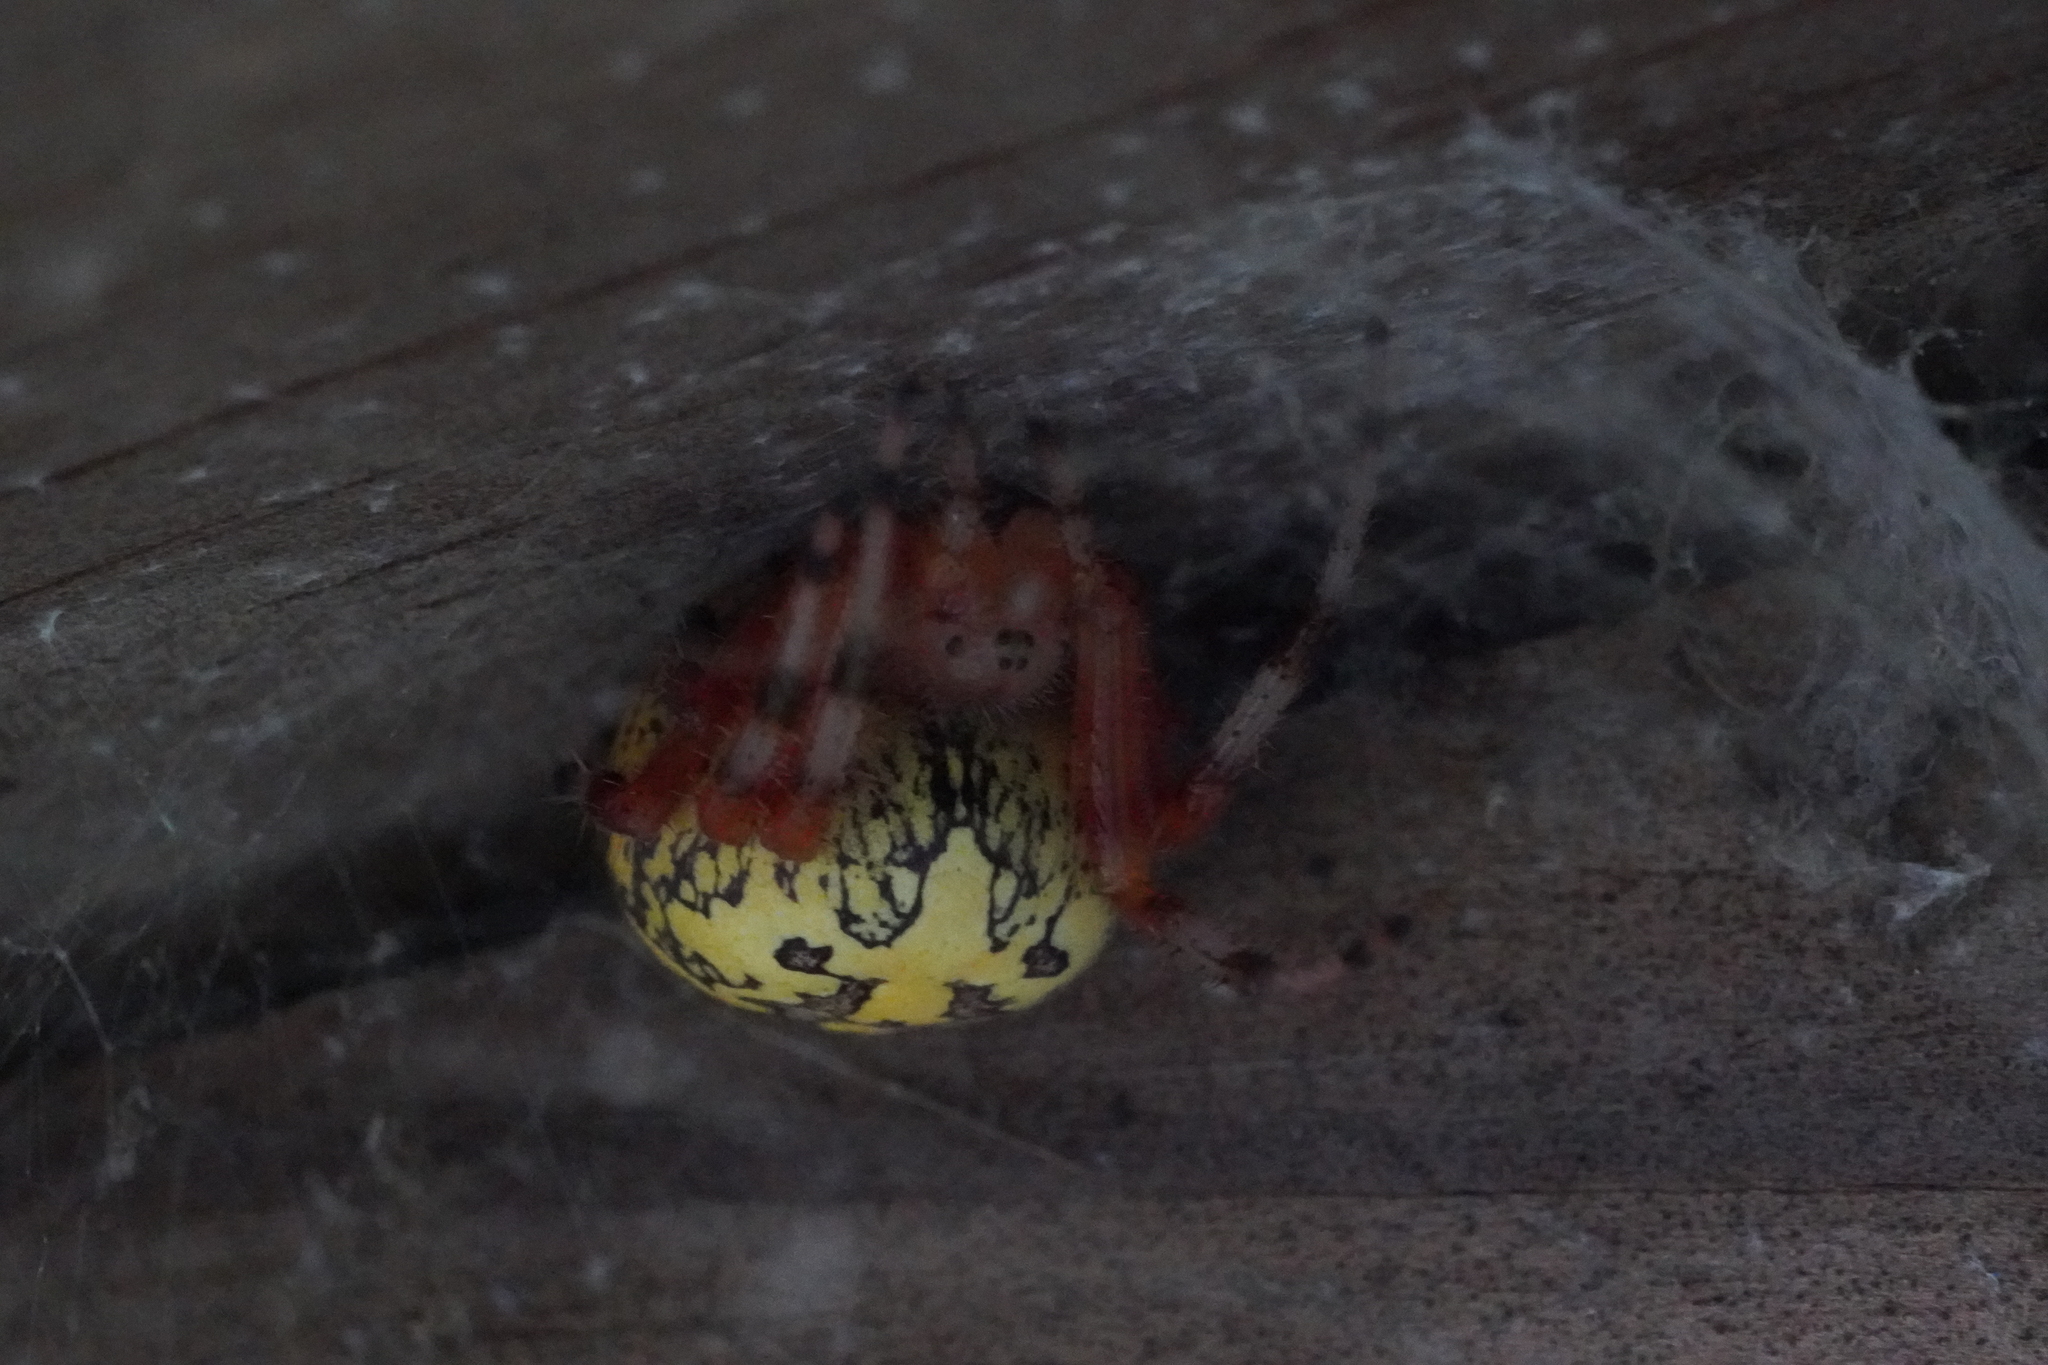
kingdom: Animalia
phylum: Arthropoda
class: Arachnida
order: Araneae
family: Araneidae
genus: Araneus
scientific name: Araneus marmoreus
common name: Marbled orbweaver
